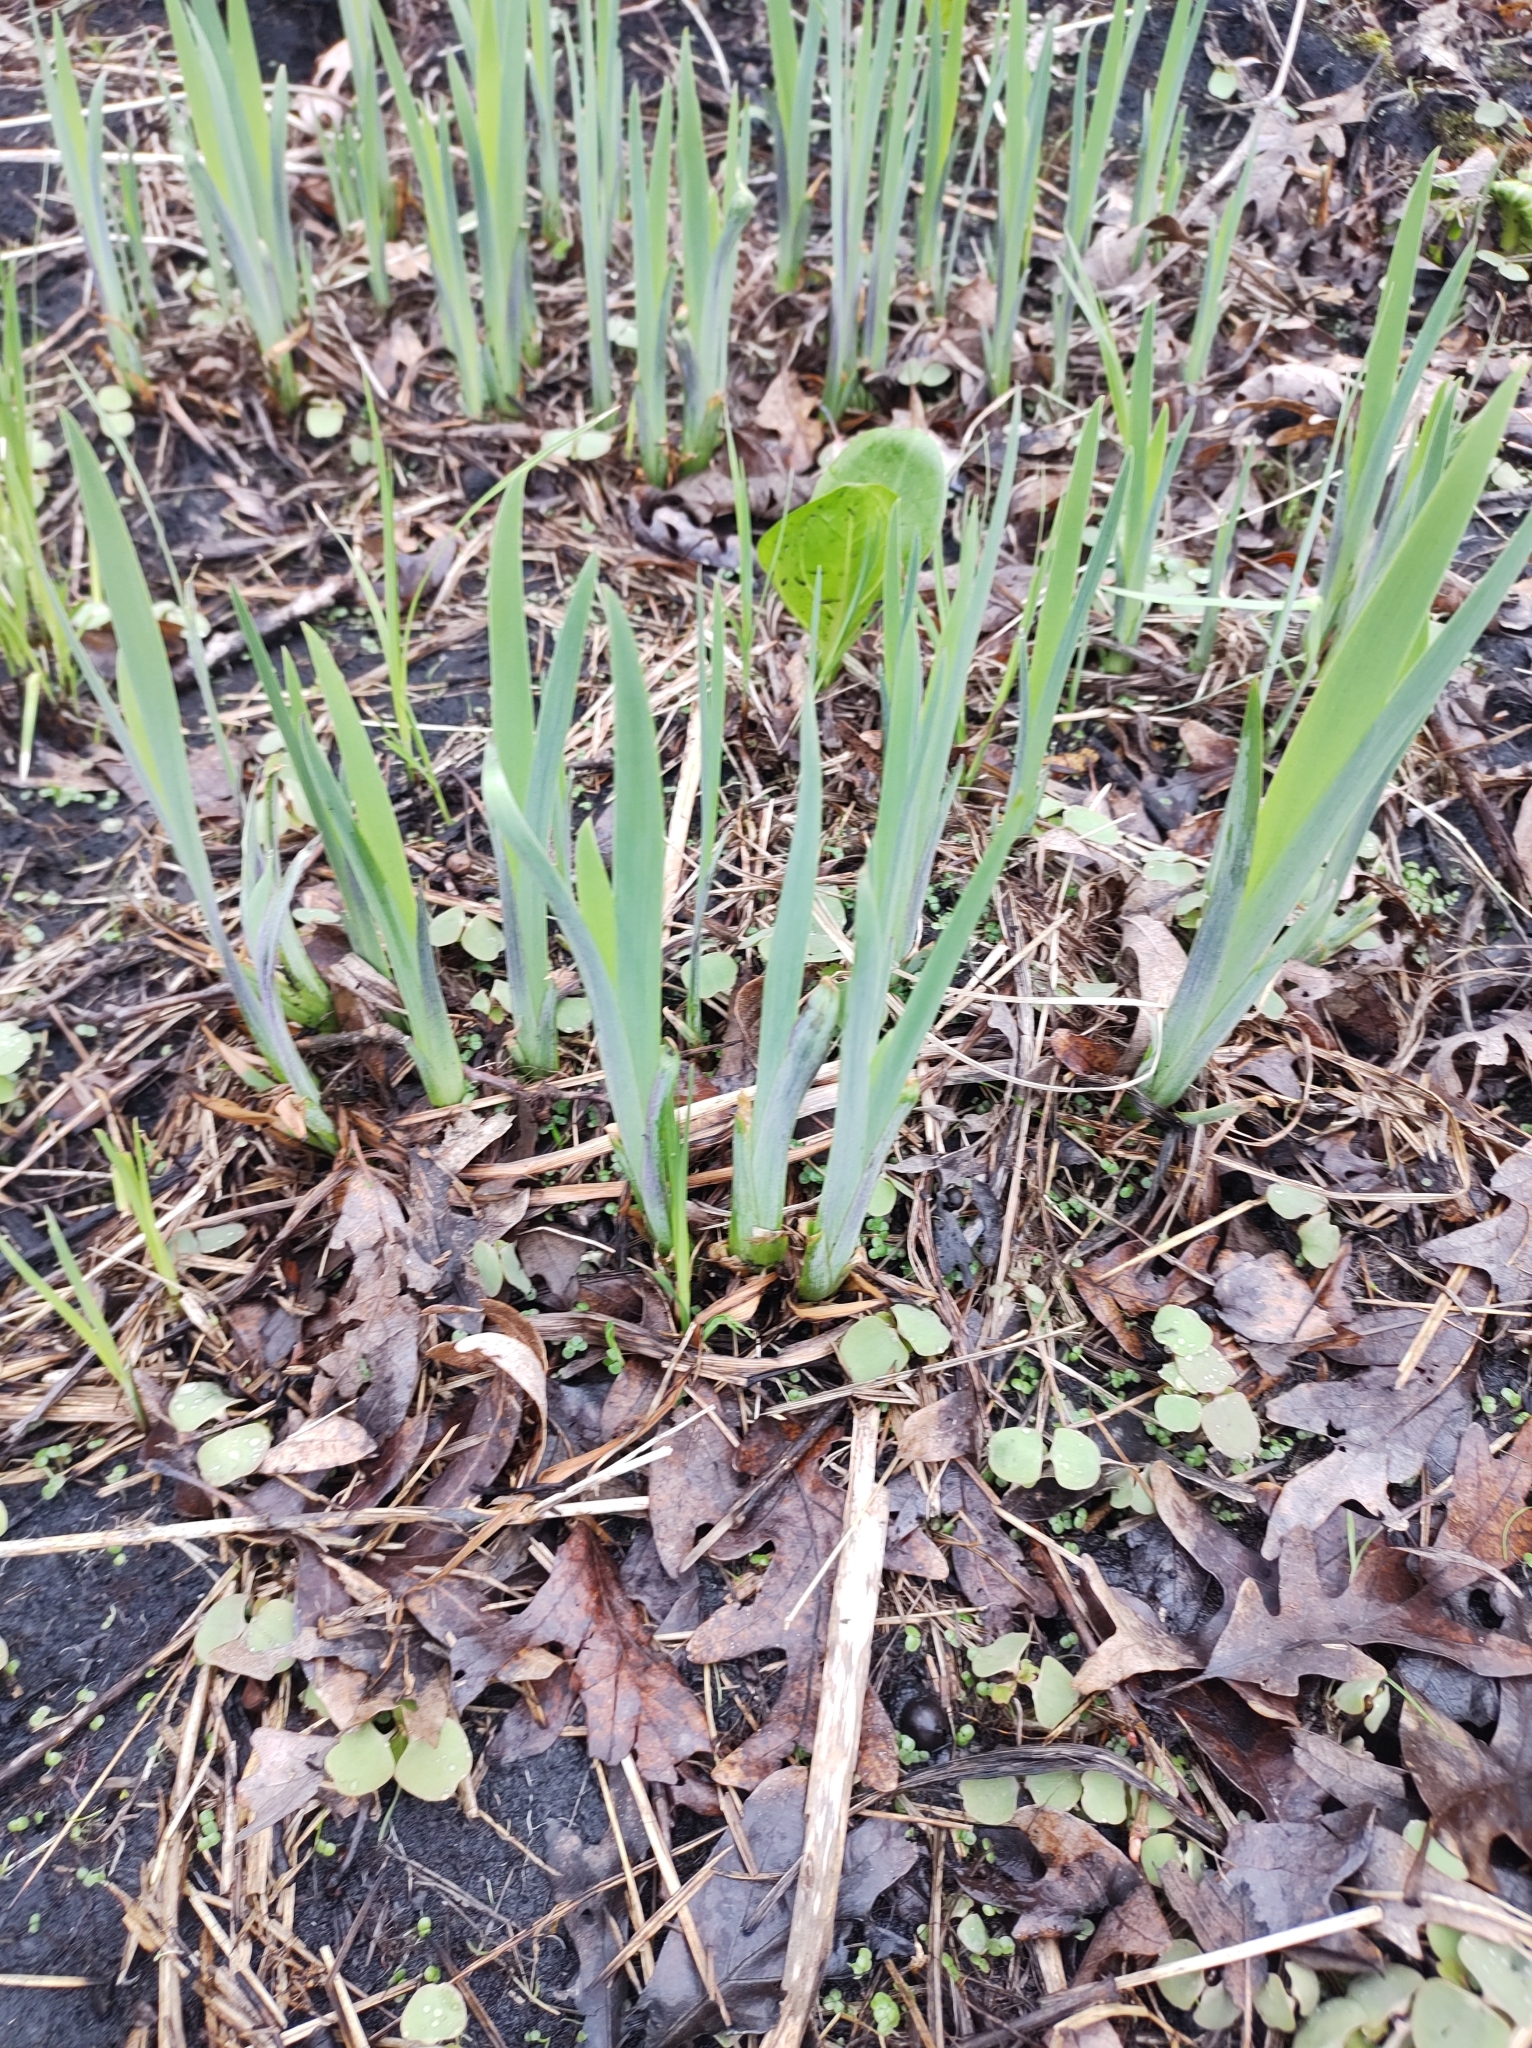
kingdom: Plantae
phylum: Tracheophyta
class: Liliopsida
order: Asparagales
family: Iridaceae
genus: Iris
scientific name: Iris virginica
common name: Southern blue flag
